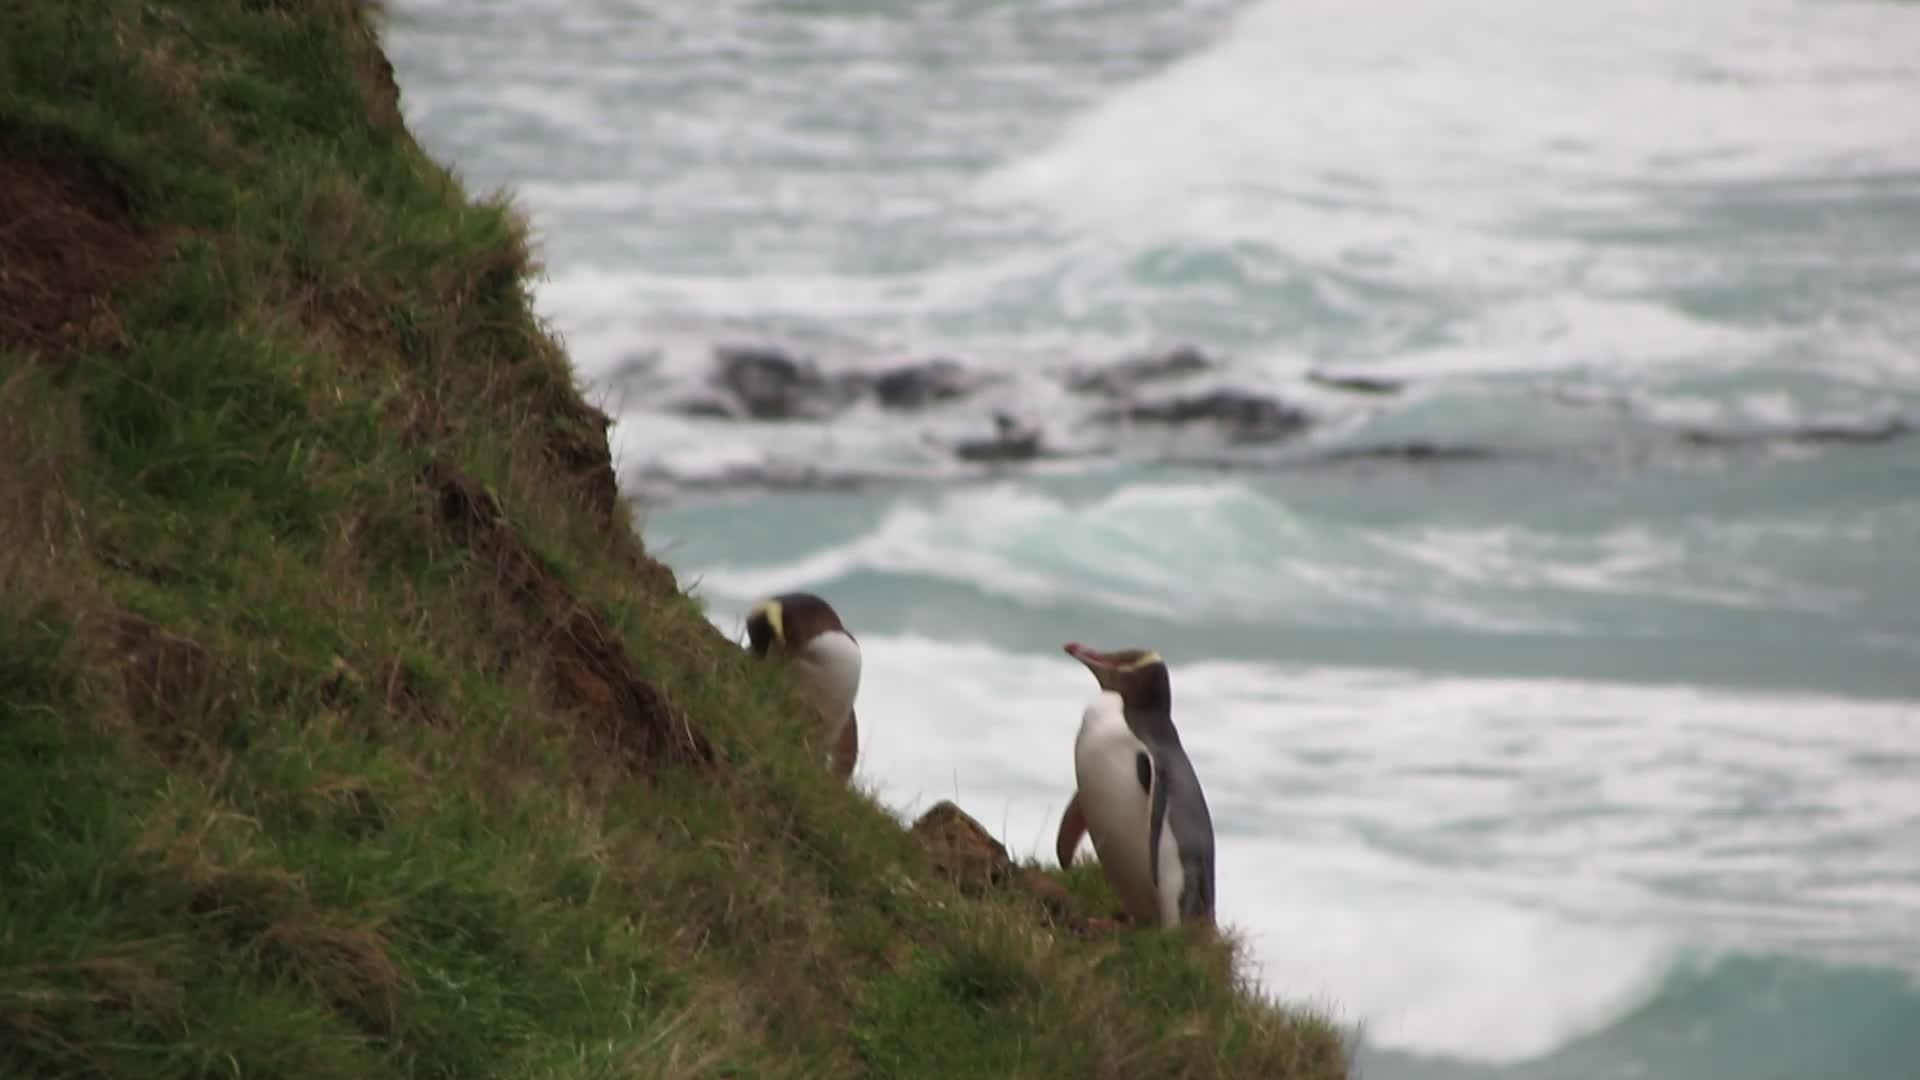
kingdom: Animalia
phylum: Chordata
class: Aves
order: Sphenisciformes
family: Spheniscidae
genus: Megadyptes
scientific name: Megadyptes antipodes
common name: Yellow-eyed penguin
